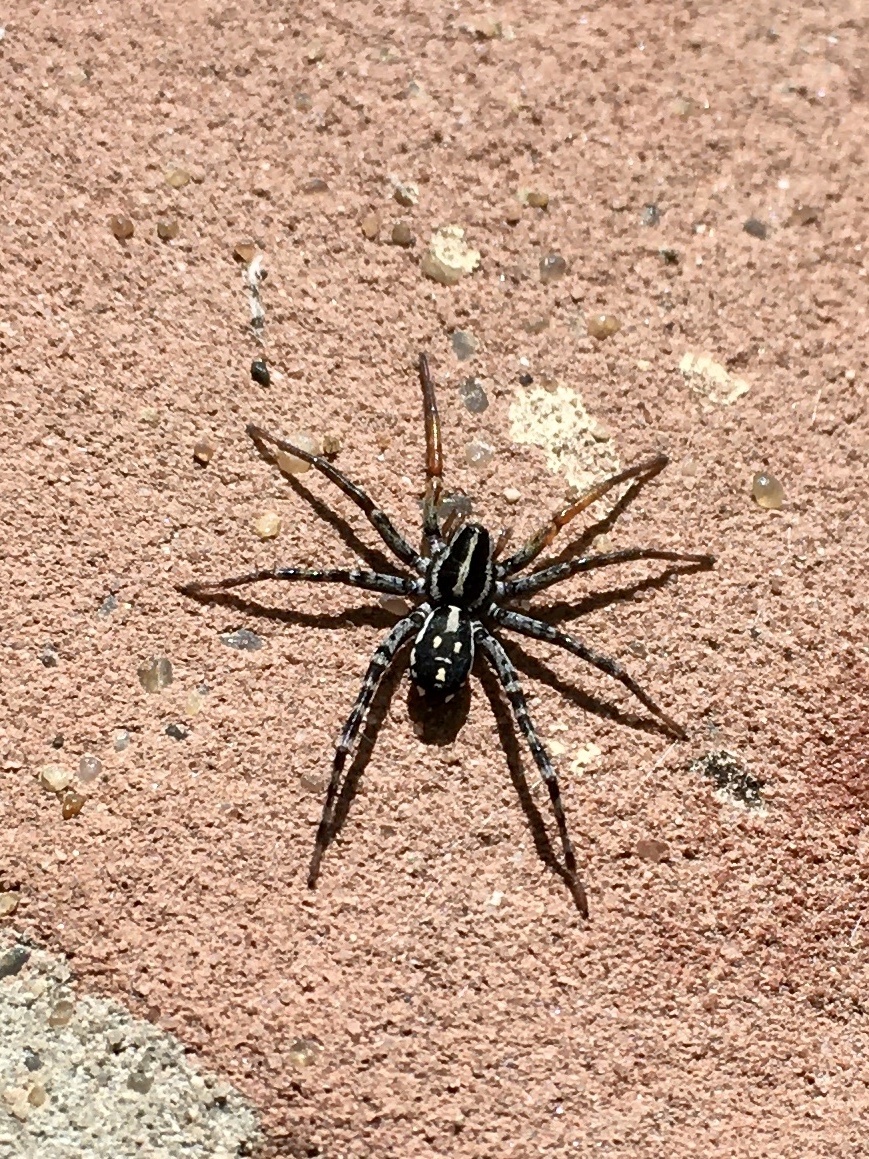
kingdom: Animalia
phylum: Arthropoda
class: Arachnida
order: Araneae
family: Corinnidae
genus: Nyssus
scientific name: Nyssus coloripes
